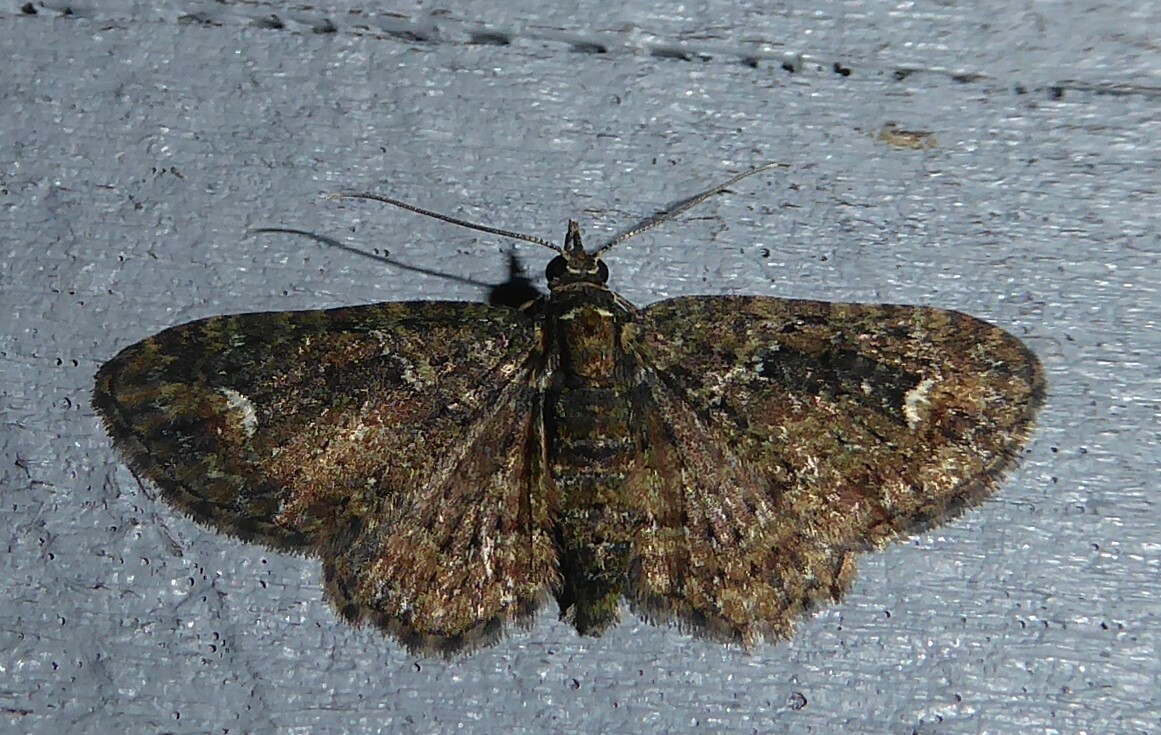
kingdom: Animalia
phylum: Arthropoda
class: Insecta
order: Lepidoptera
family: Geometridae
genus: Pasiphilodes
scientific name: Pasiphilodes testulata
